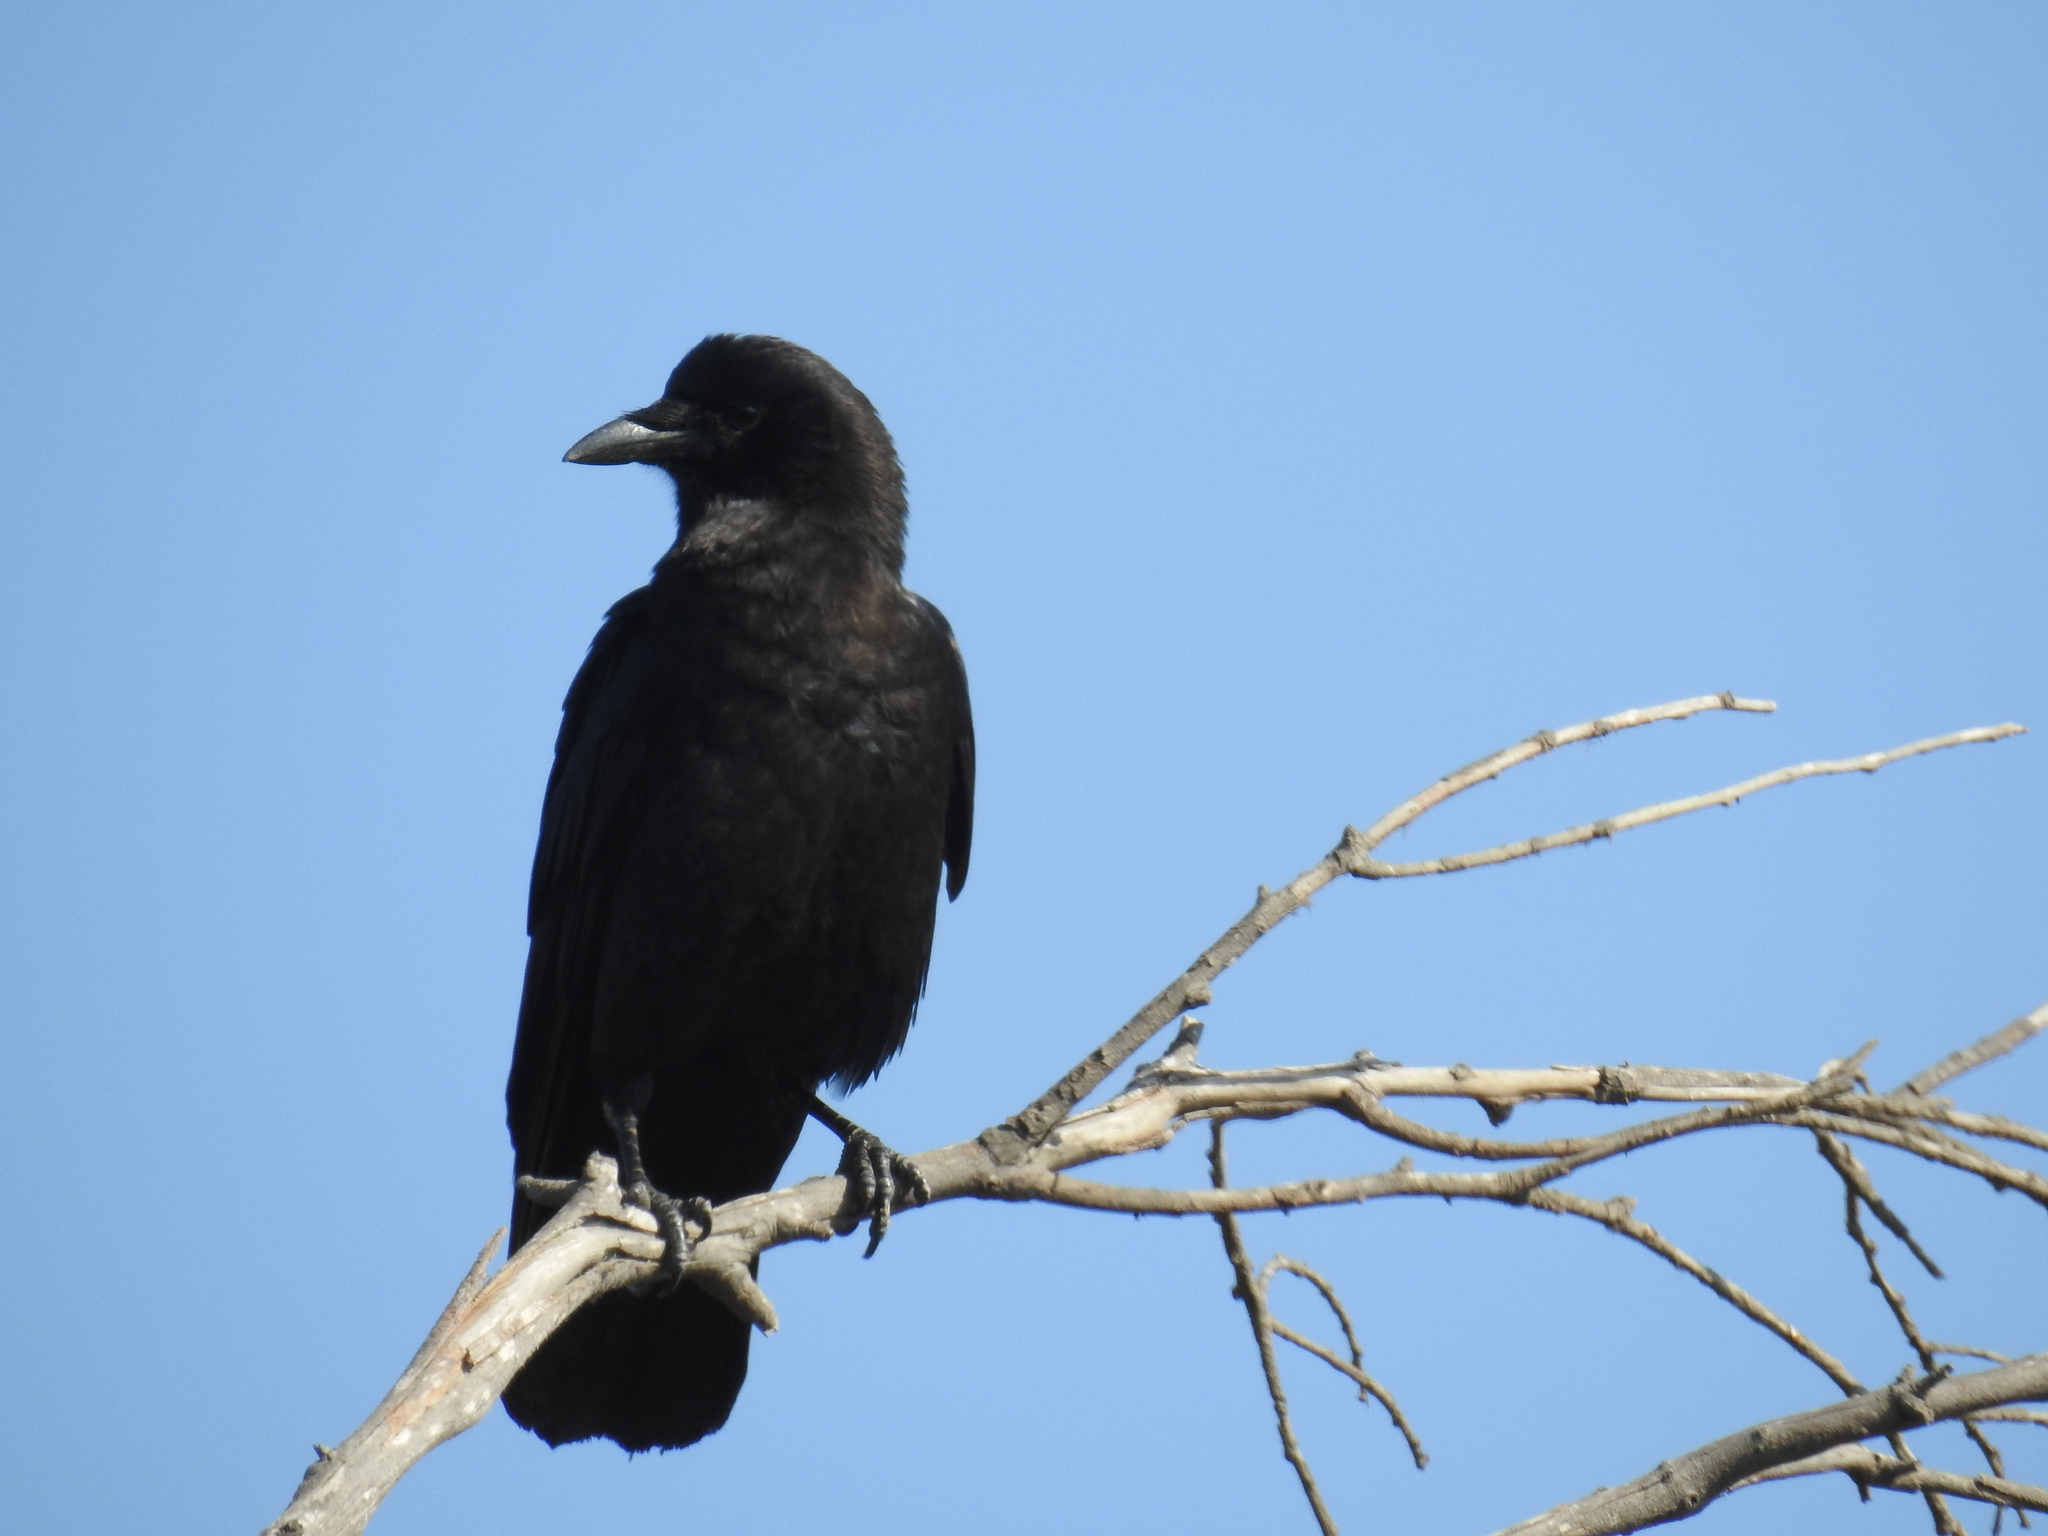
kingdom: Animalia
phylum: Chordata
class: Aves
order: Passeriformes
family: Corvidae
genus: Corvus
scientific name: Corvus brachyrhynchos
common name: American crow
